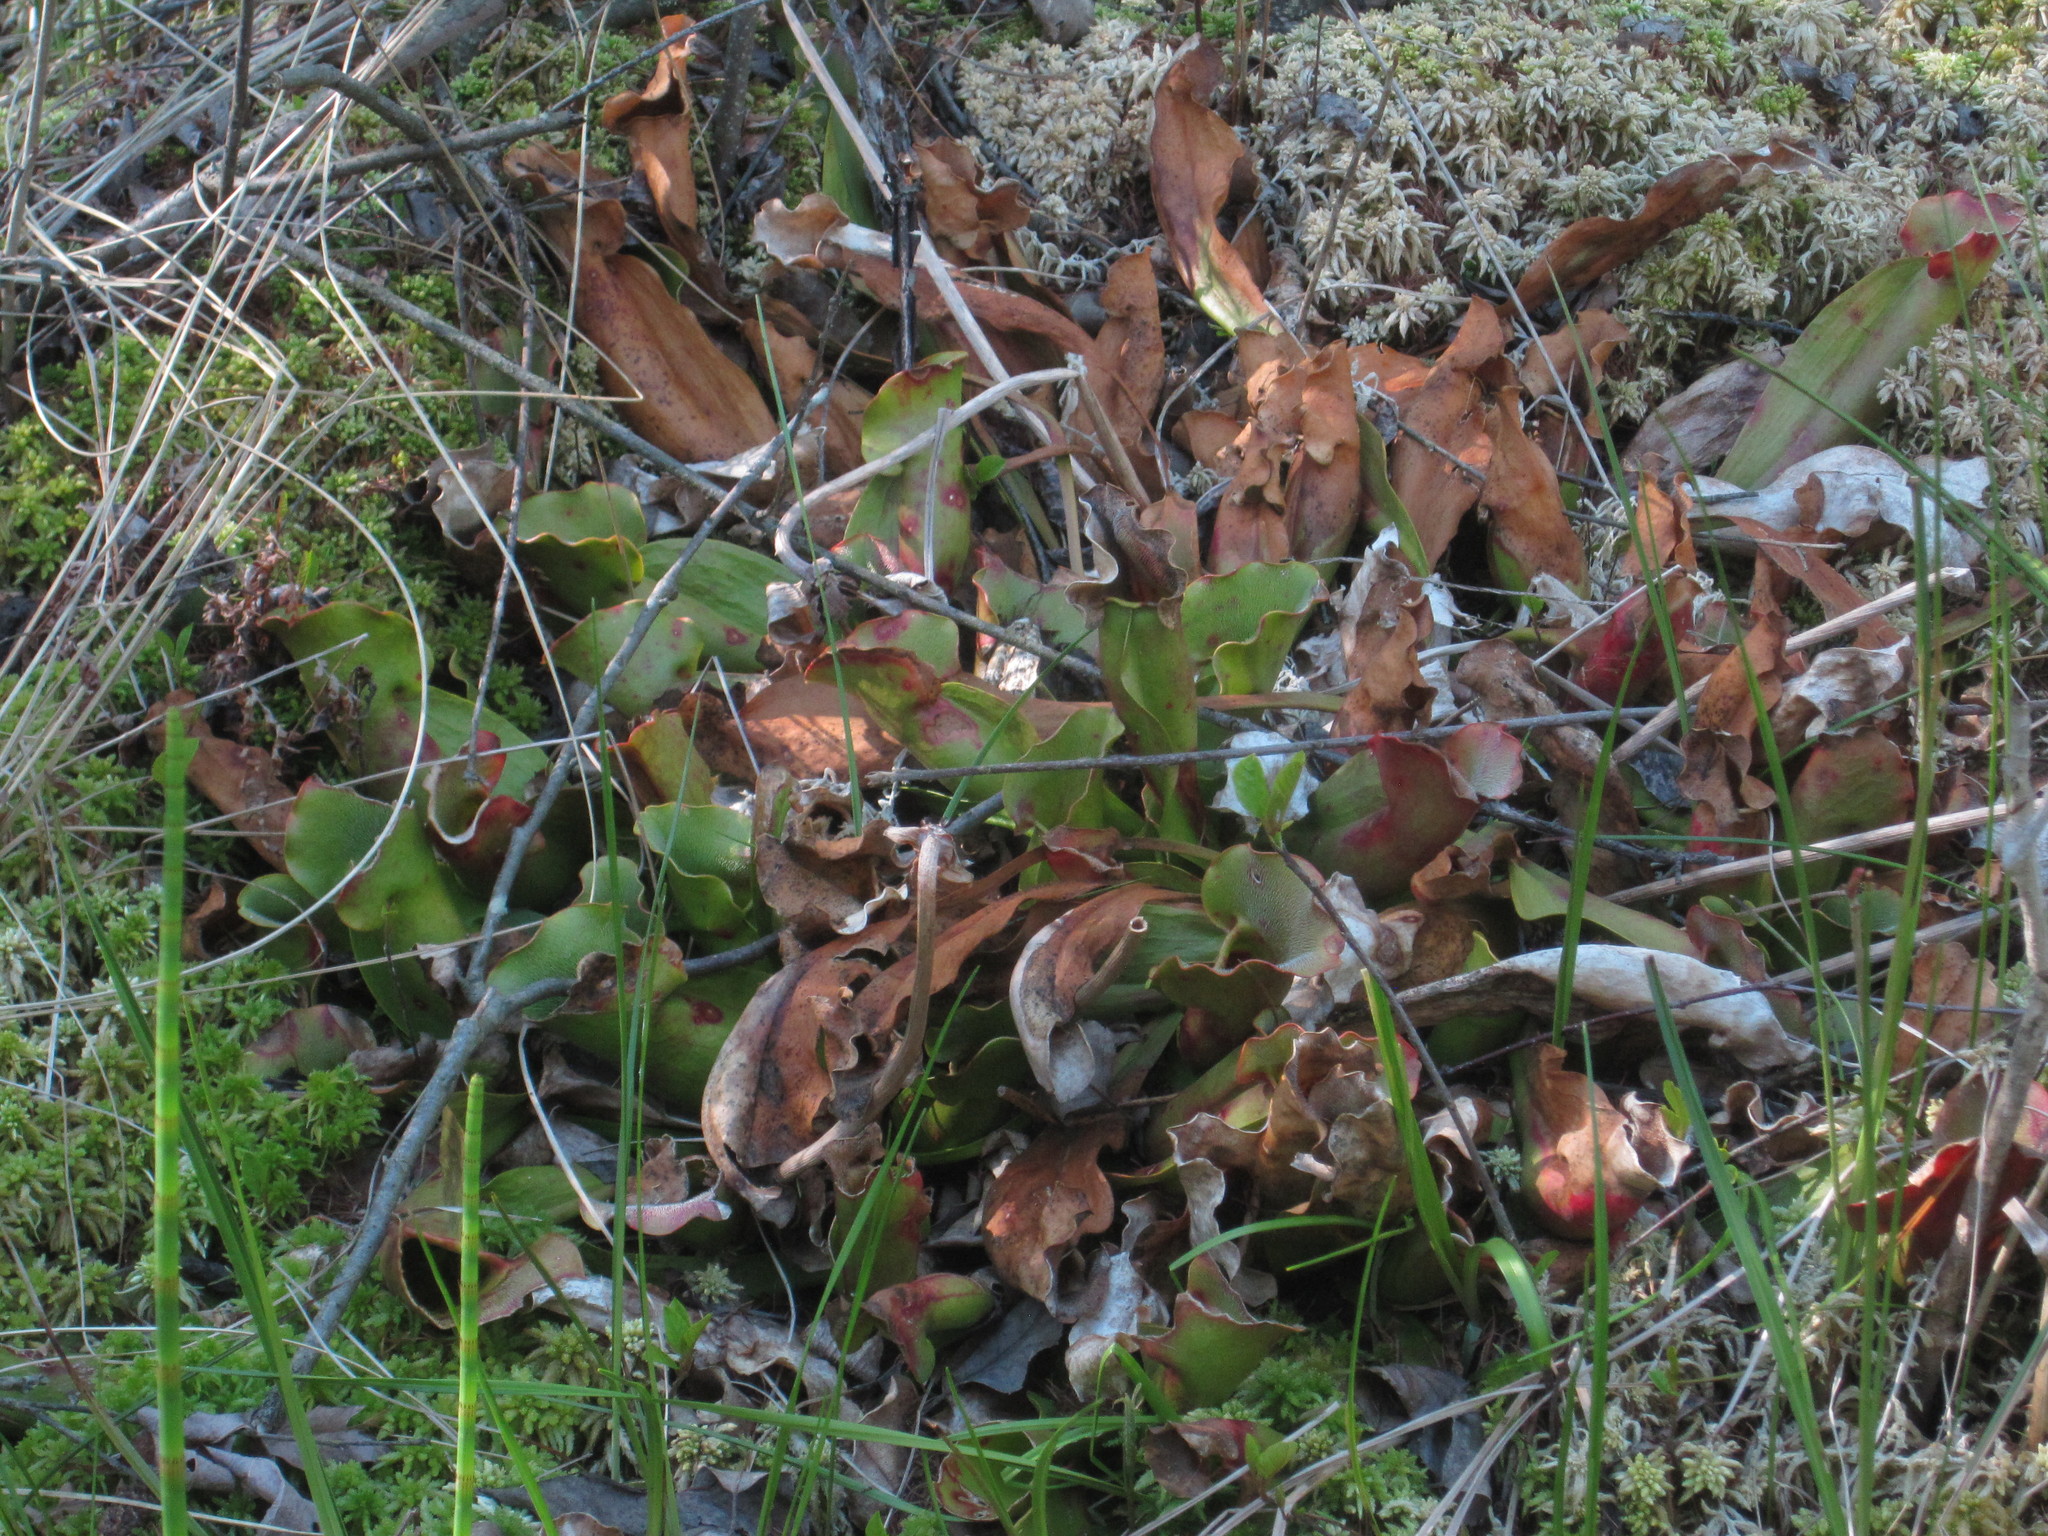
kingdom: Plantae
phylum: Tracheophyta
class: Magnoliopsida
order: Ericales
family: Sarraceniaceae
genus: Sarracenia
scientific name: Sarracenia purpurea
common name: Pitcherplant
